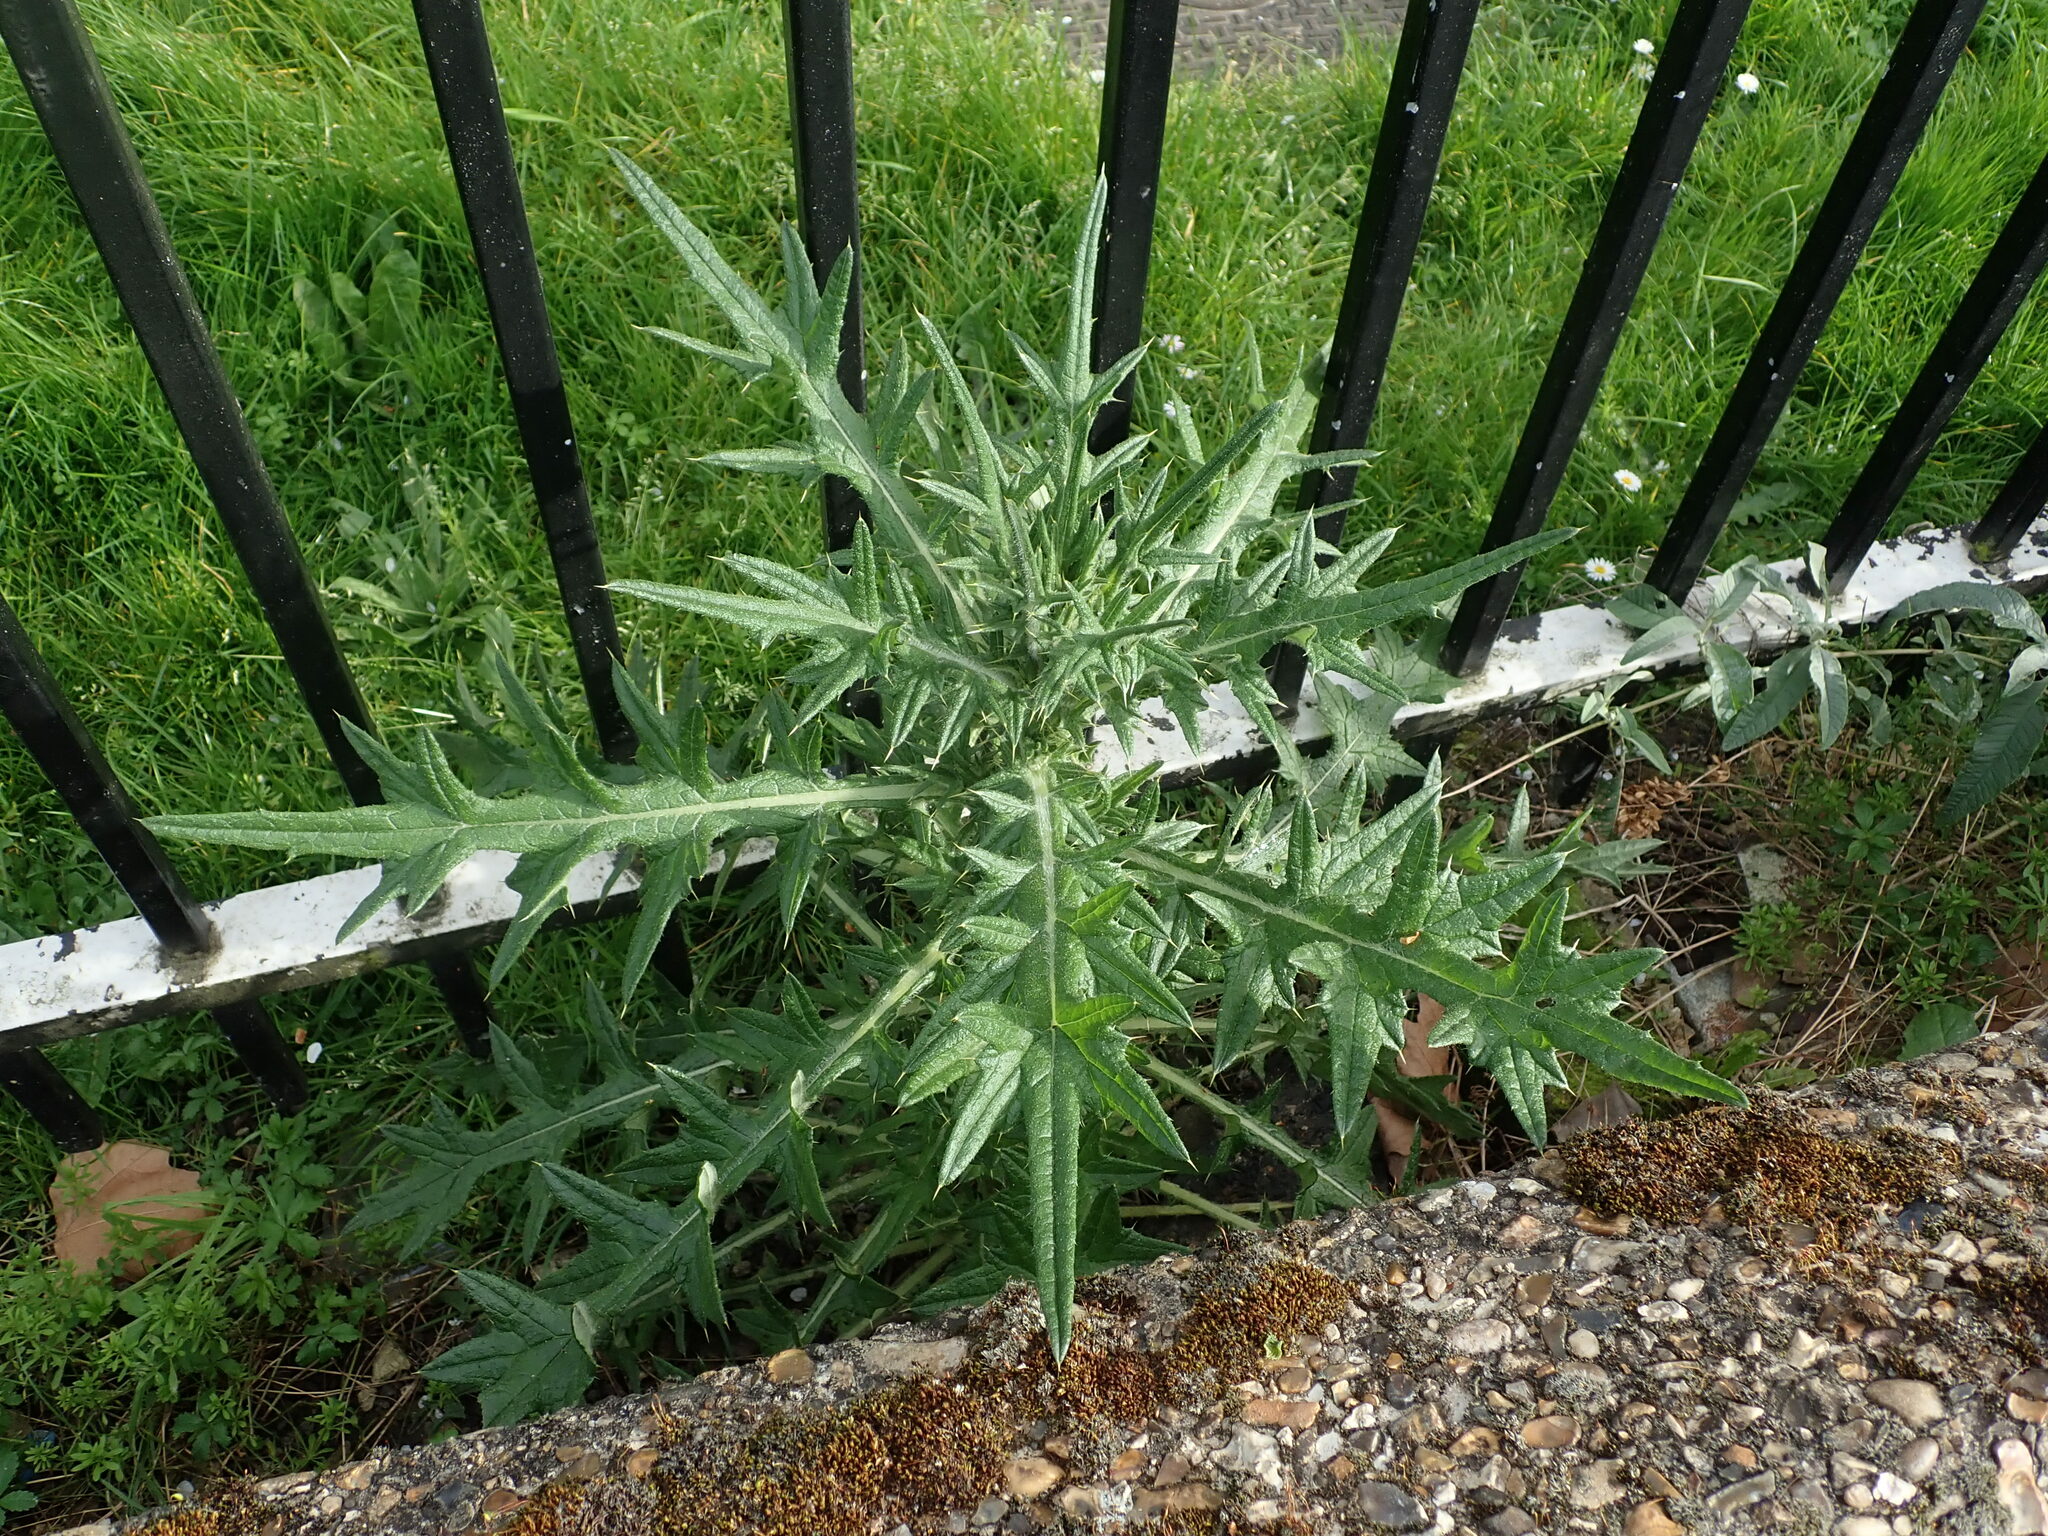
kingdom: Plantae
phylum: Tracheophyta
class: Magnoliopsida
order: Asterales
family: Asteraceae
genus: Cirsium
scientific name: Cirsium vulgare
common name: Bull thistle
